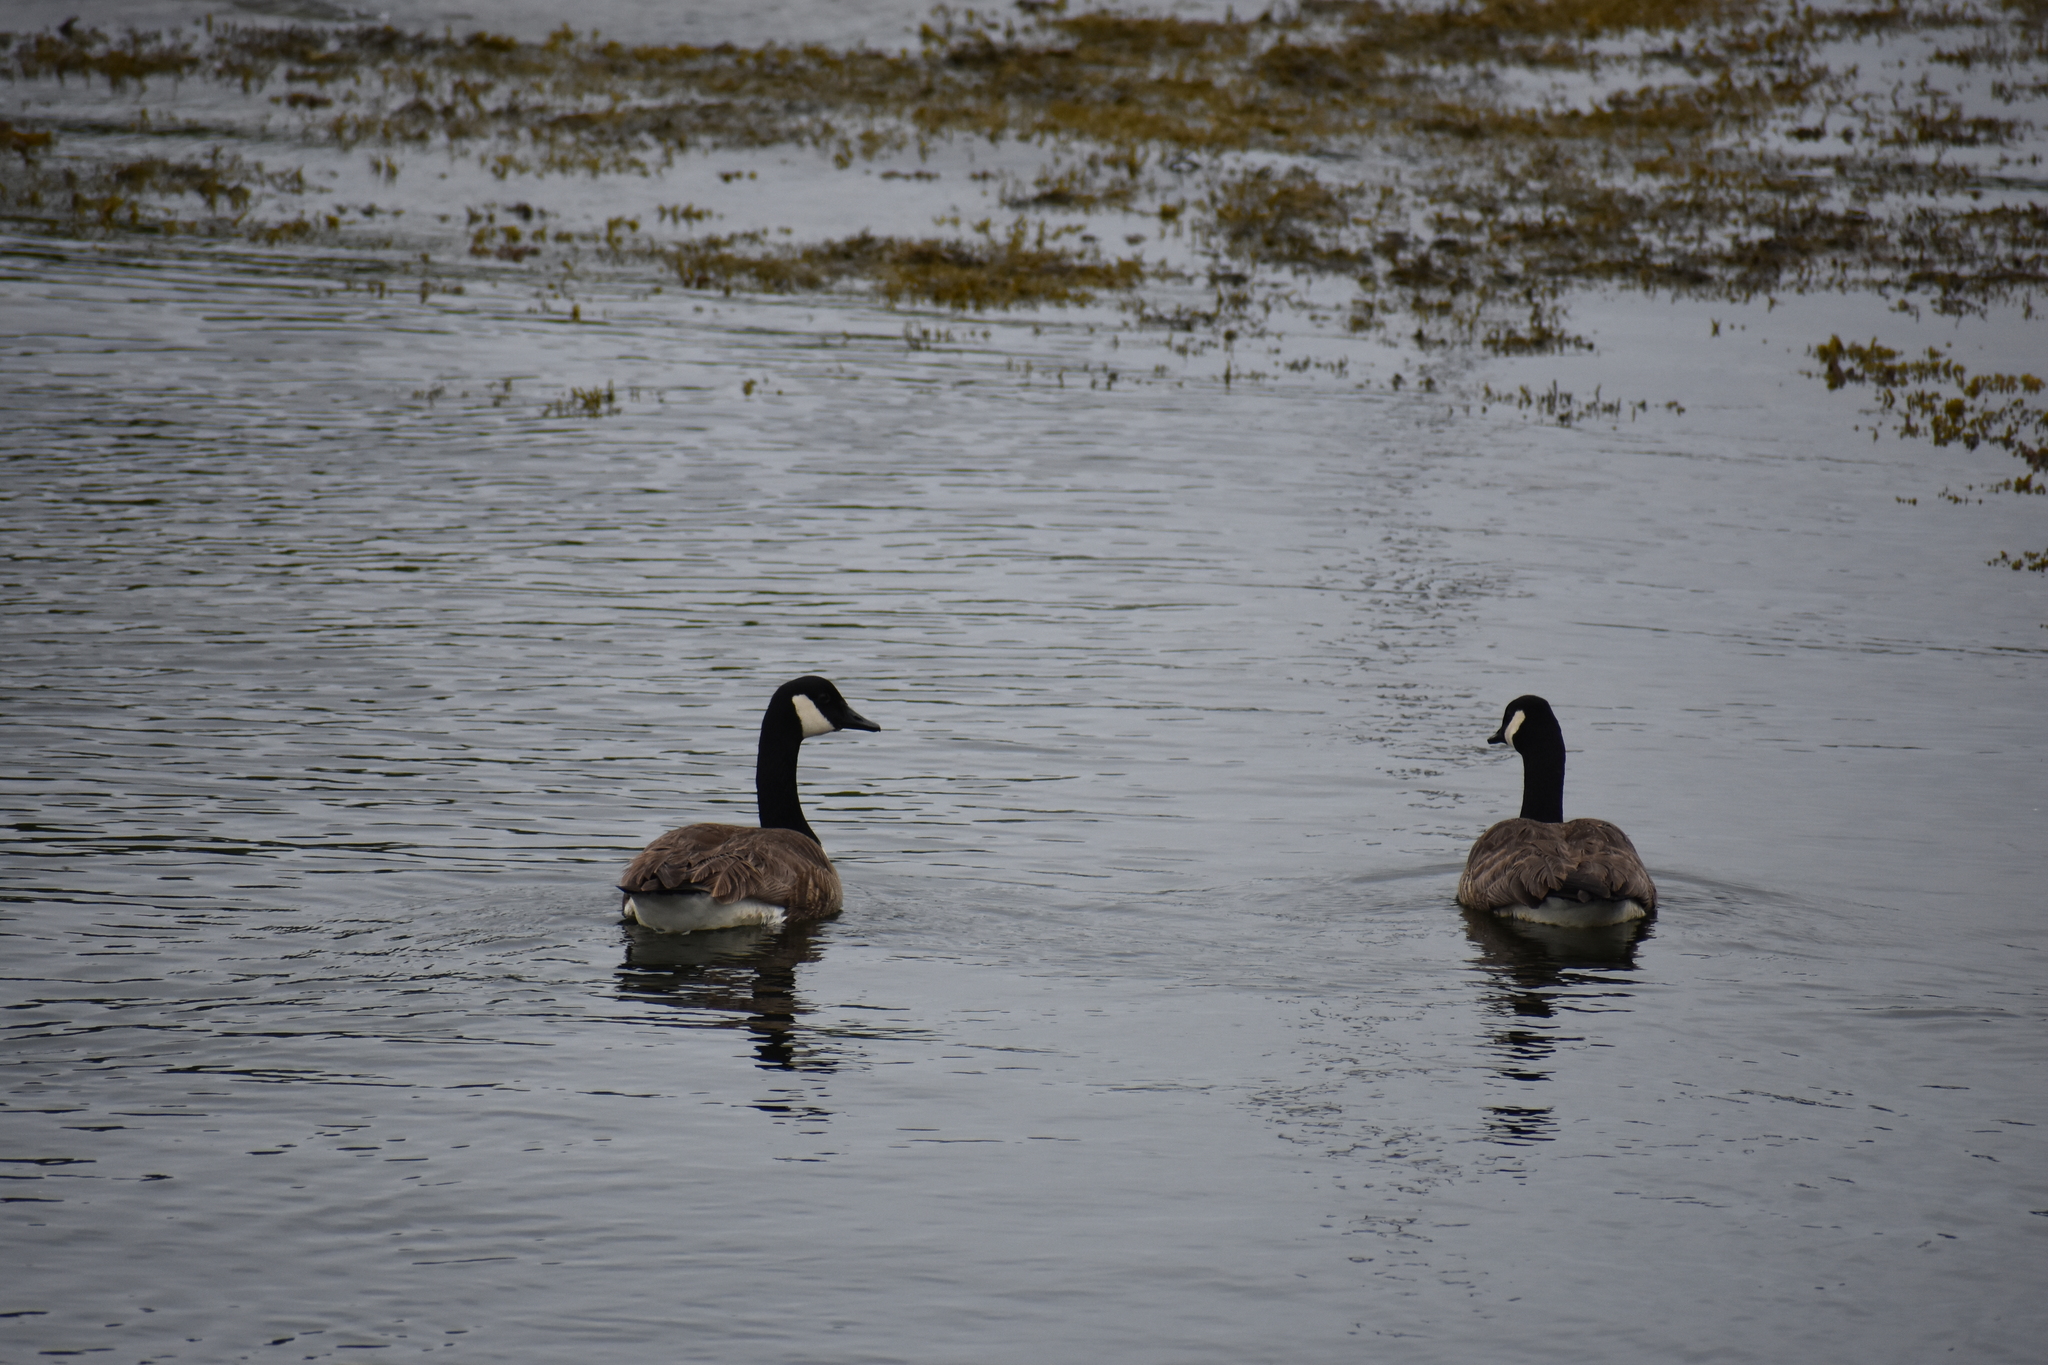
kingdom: Animalia
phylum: Chordata
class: Aves
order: Anseriformes
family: Anatidae
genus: Branta
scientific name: Branta canadensis
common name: Canada goose
